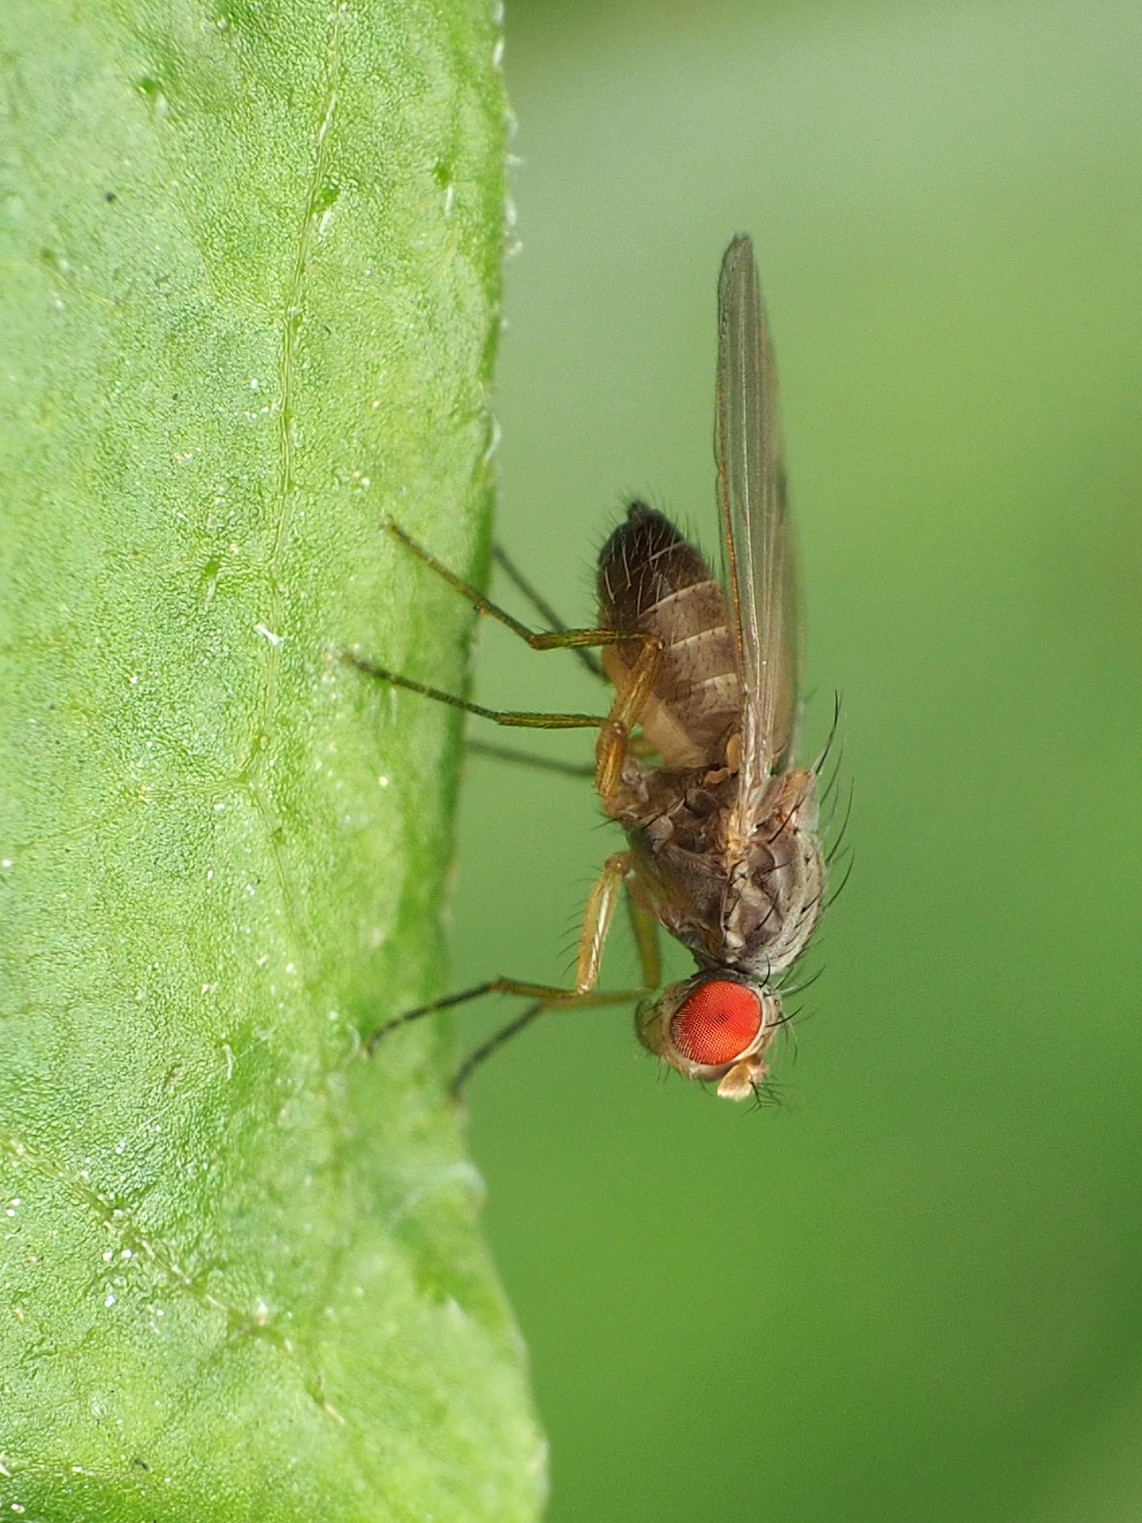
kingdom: Animalia
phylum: Arthropoda
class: Insecta
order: Diptera
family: Drosophilidae
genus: Scaptomyza
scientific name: Scaptomyza pallida
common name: Pomace fly
